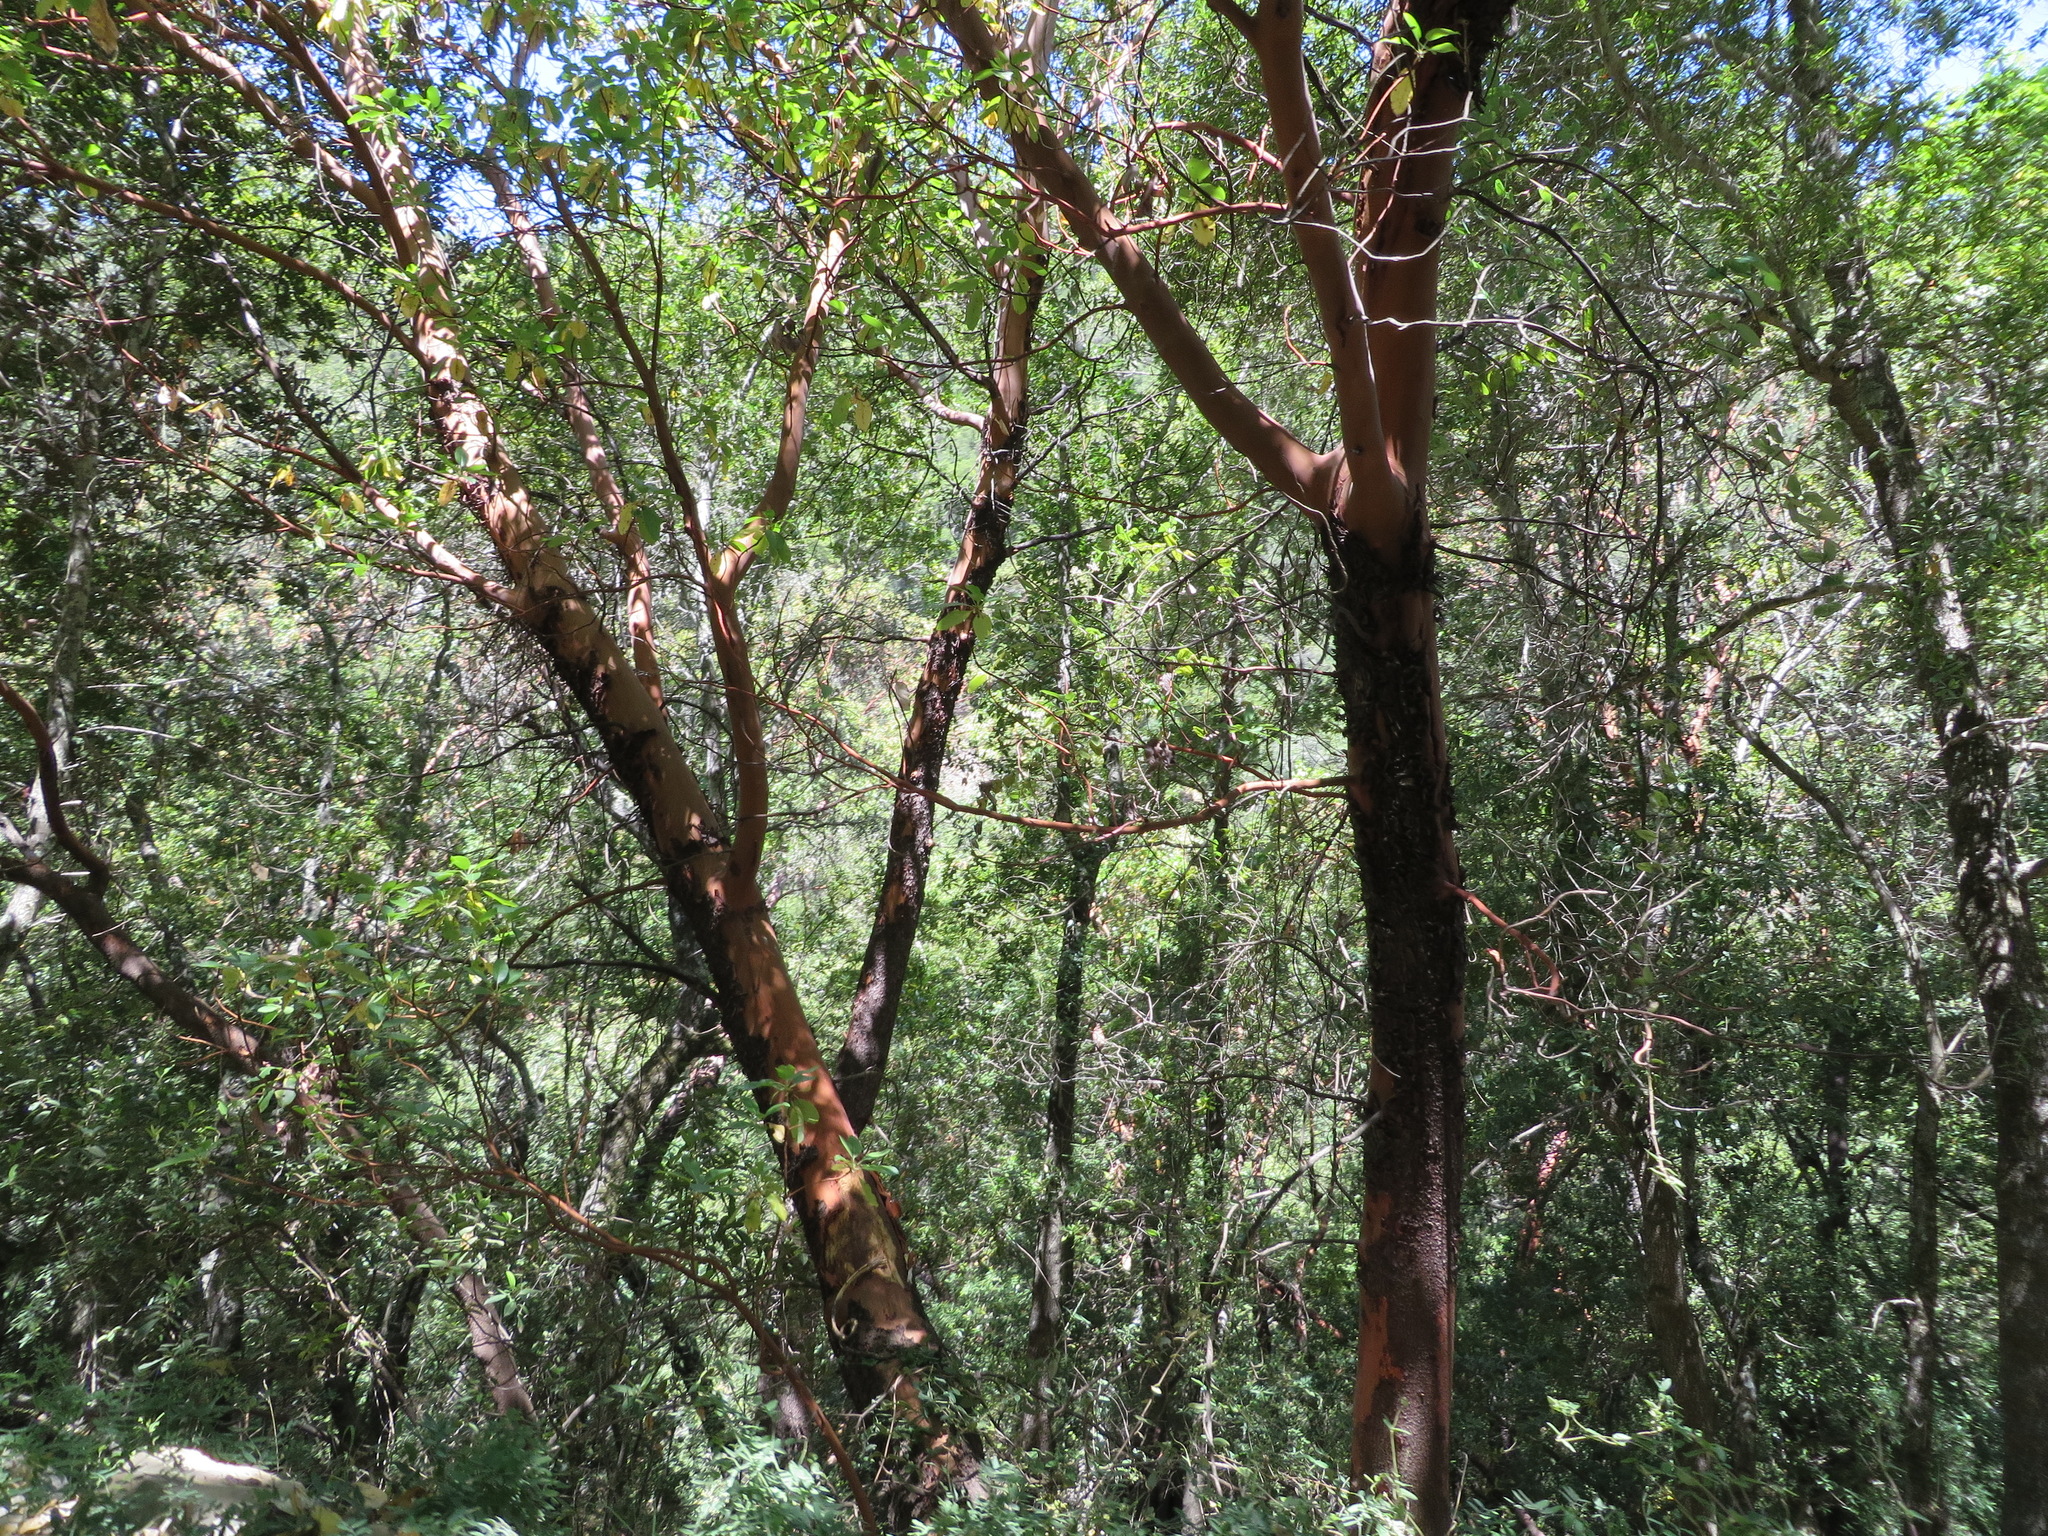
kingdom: Plantae
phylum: Tracheophyta
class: Magnoliopsida
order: Ericales
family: Ericaceae
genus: Arbutus
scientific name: Arbutus menziesii
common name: Pacific madrone
